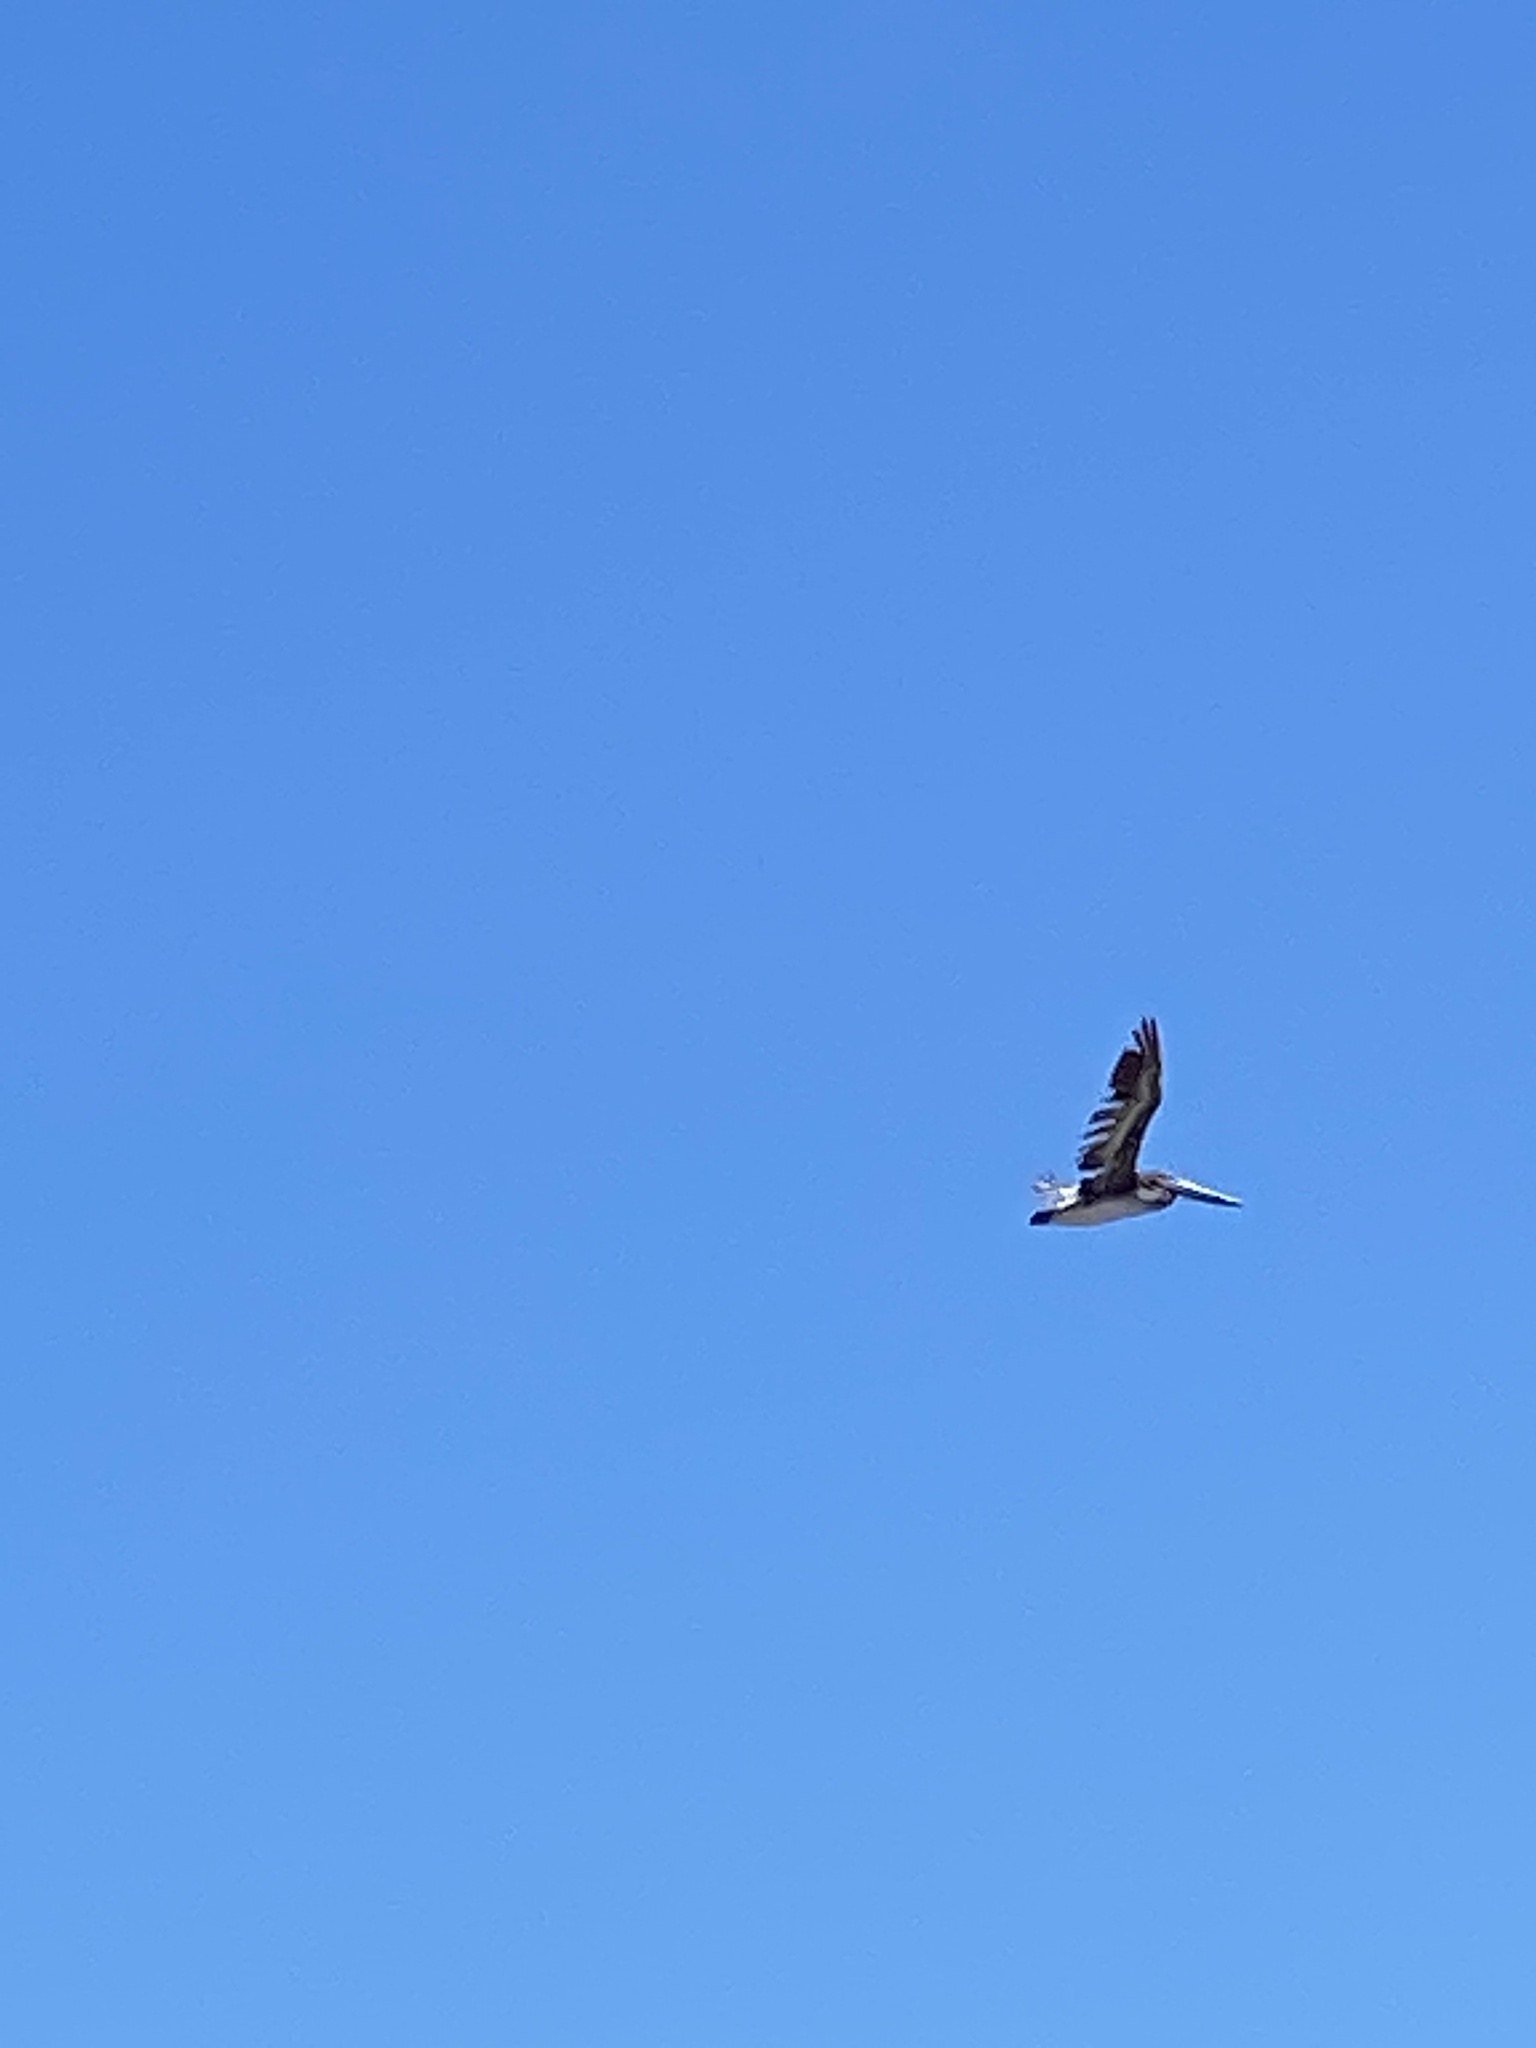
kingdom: Animalia
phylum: Chordata
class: Aves
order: Pelecaniformes
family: Pelecanidae
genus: Pelecanus
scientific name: Pelecanus occidentalis
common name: Brown pelican
